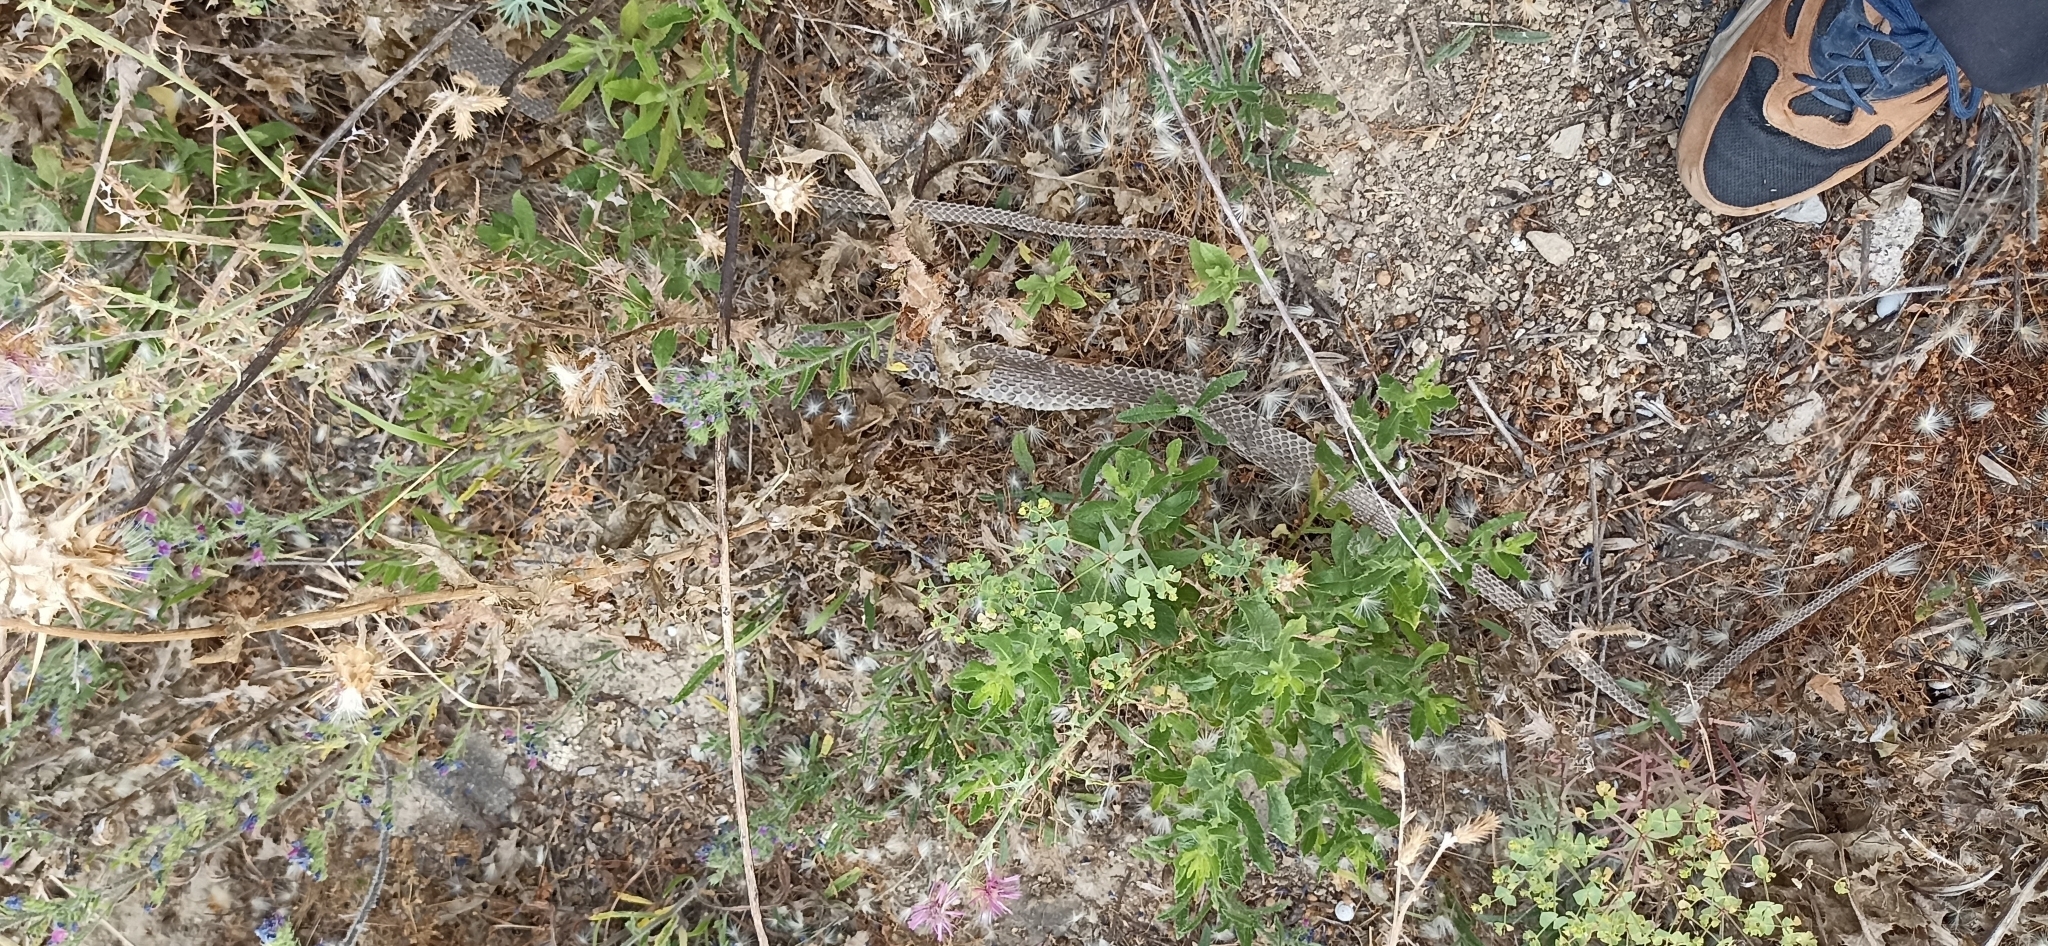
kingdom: Animalia
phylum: Chordata
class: Squamata
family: Psammophiidae
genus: Malpolon
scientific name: Malpolon monspessulanus
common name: Montpellier snake
